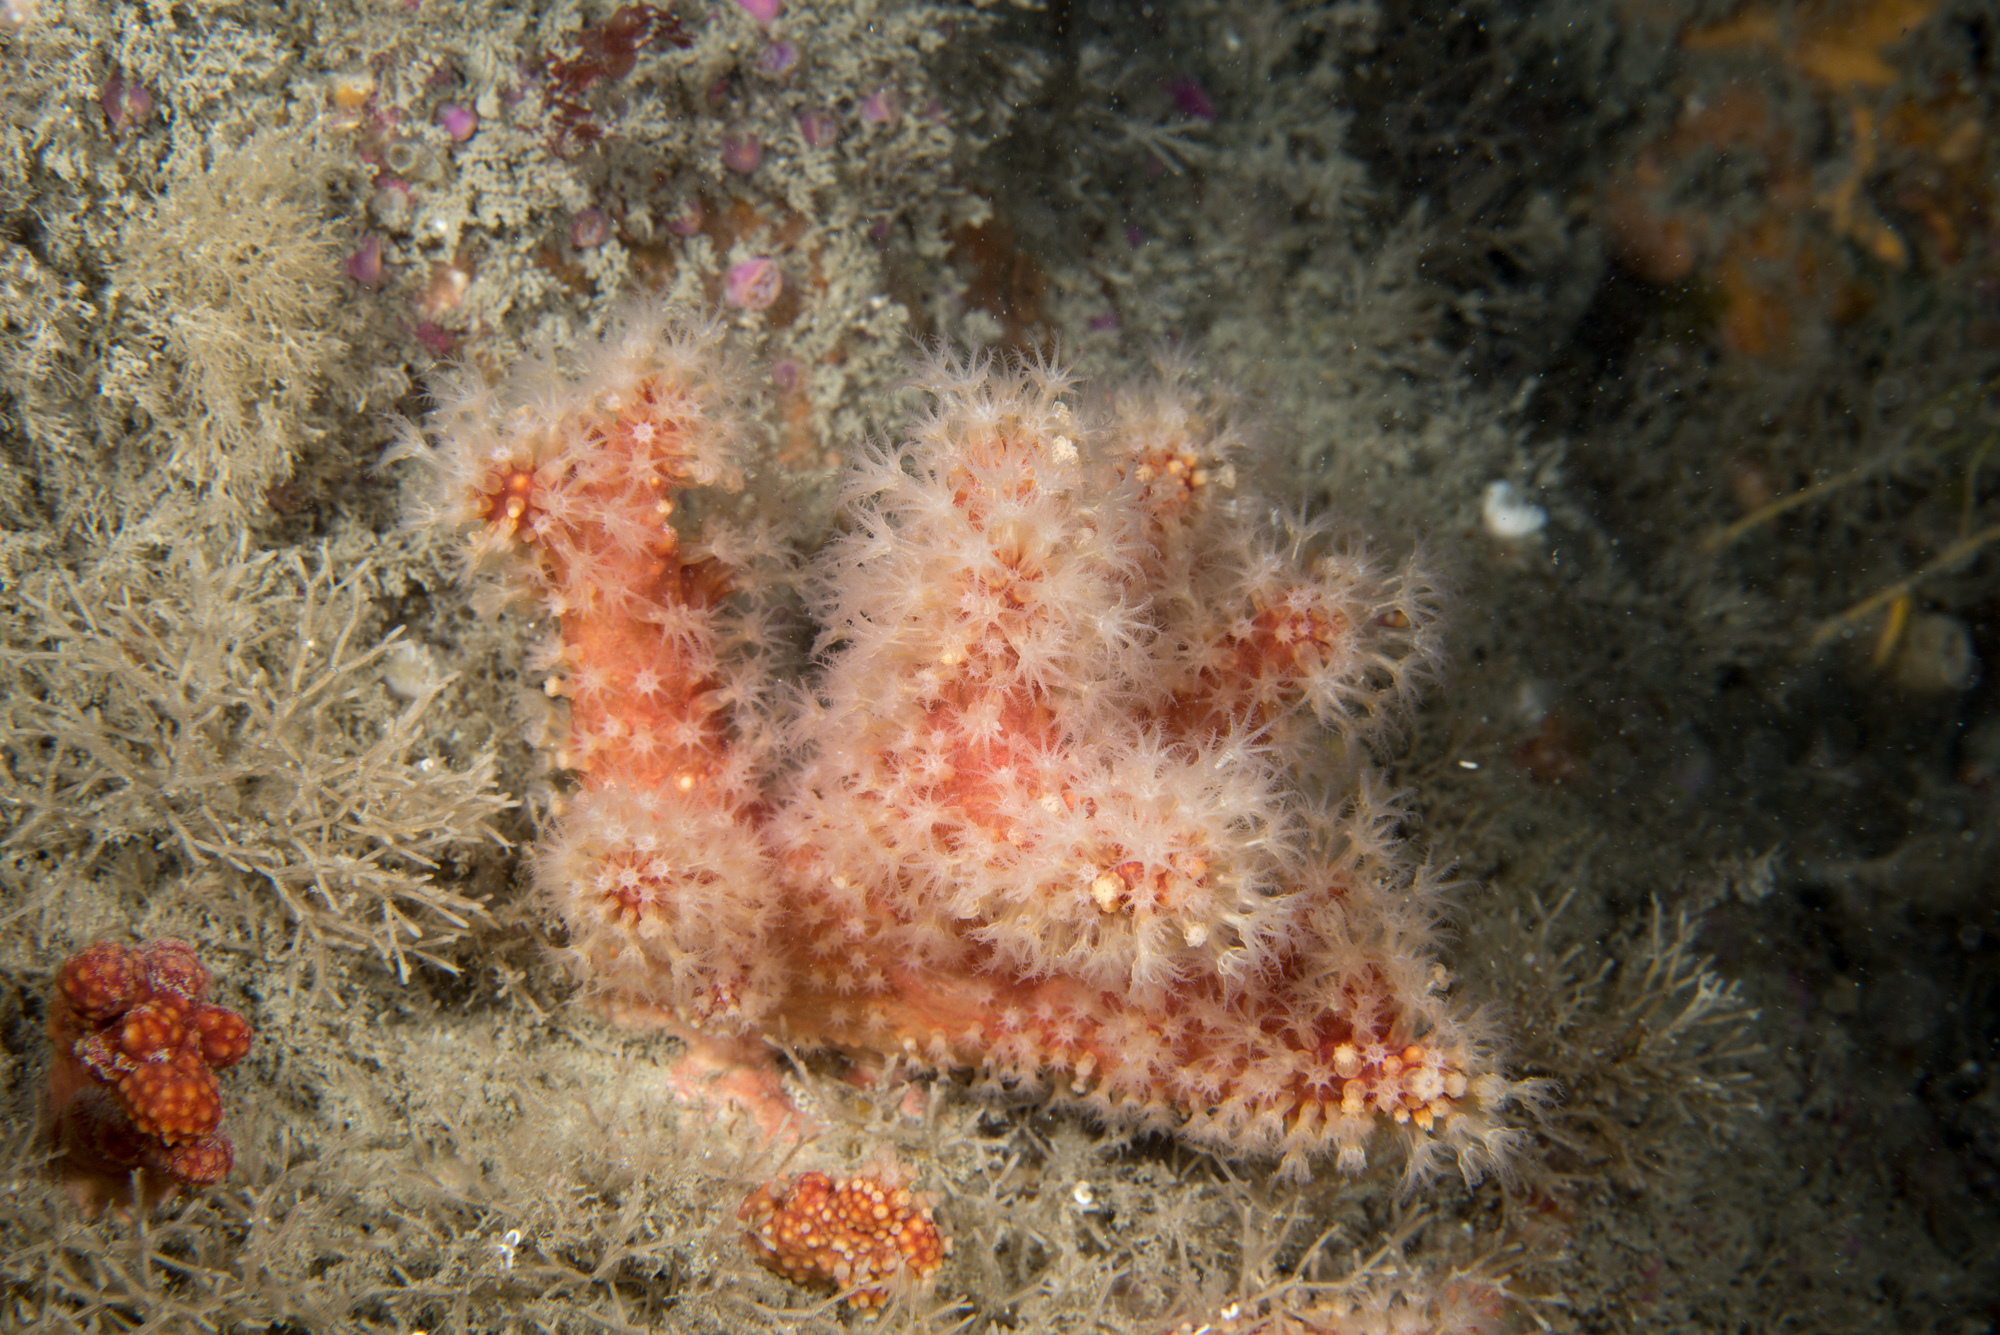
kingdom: Animalia
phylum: Cnidaria
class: Anthozoa
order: Malacalcyonacea
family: Alcyoniidae
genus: Alcyonium
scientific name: Alcyonium glomeratum
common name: Red fingers
